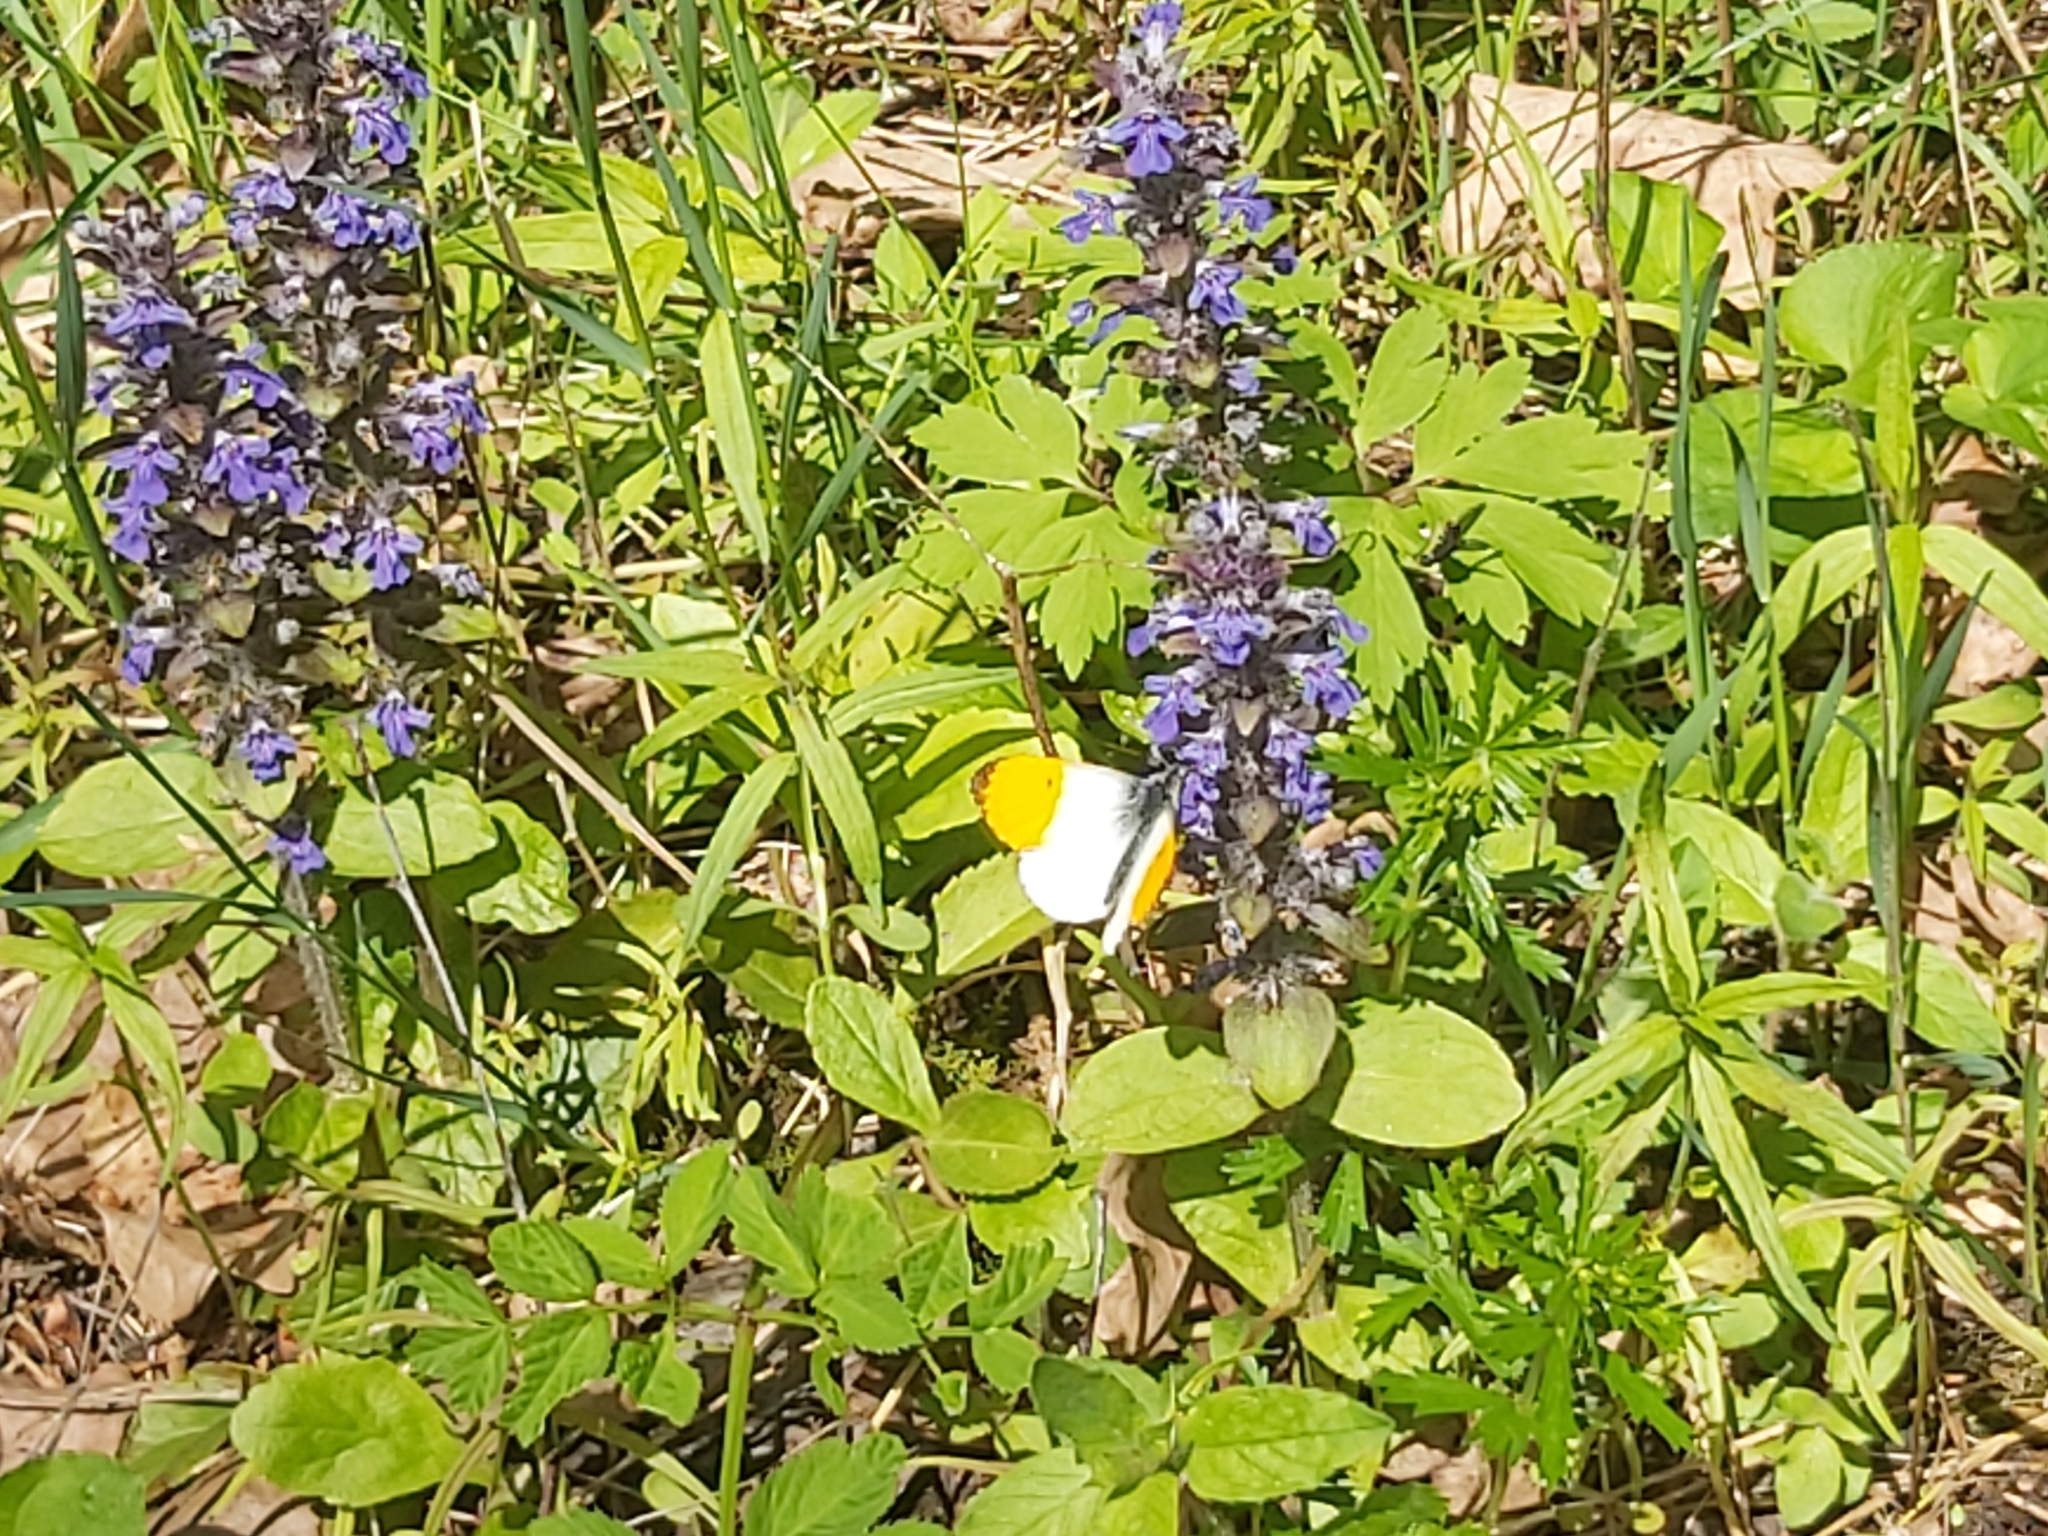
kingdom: Animalia
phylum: Arthropoda
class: Insecta
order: Lepidoptera
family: Pieridae
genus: Anthocharis
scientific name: Anthocharis cardamines
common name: Orange-tip
